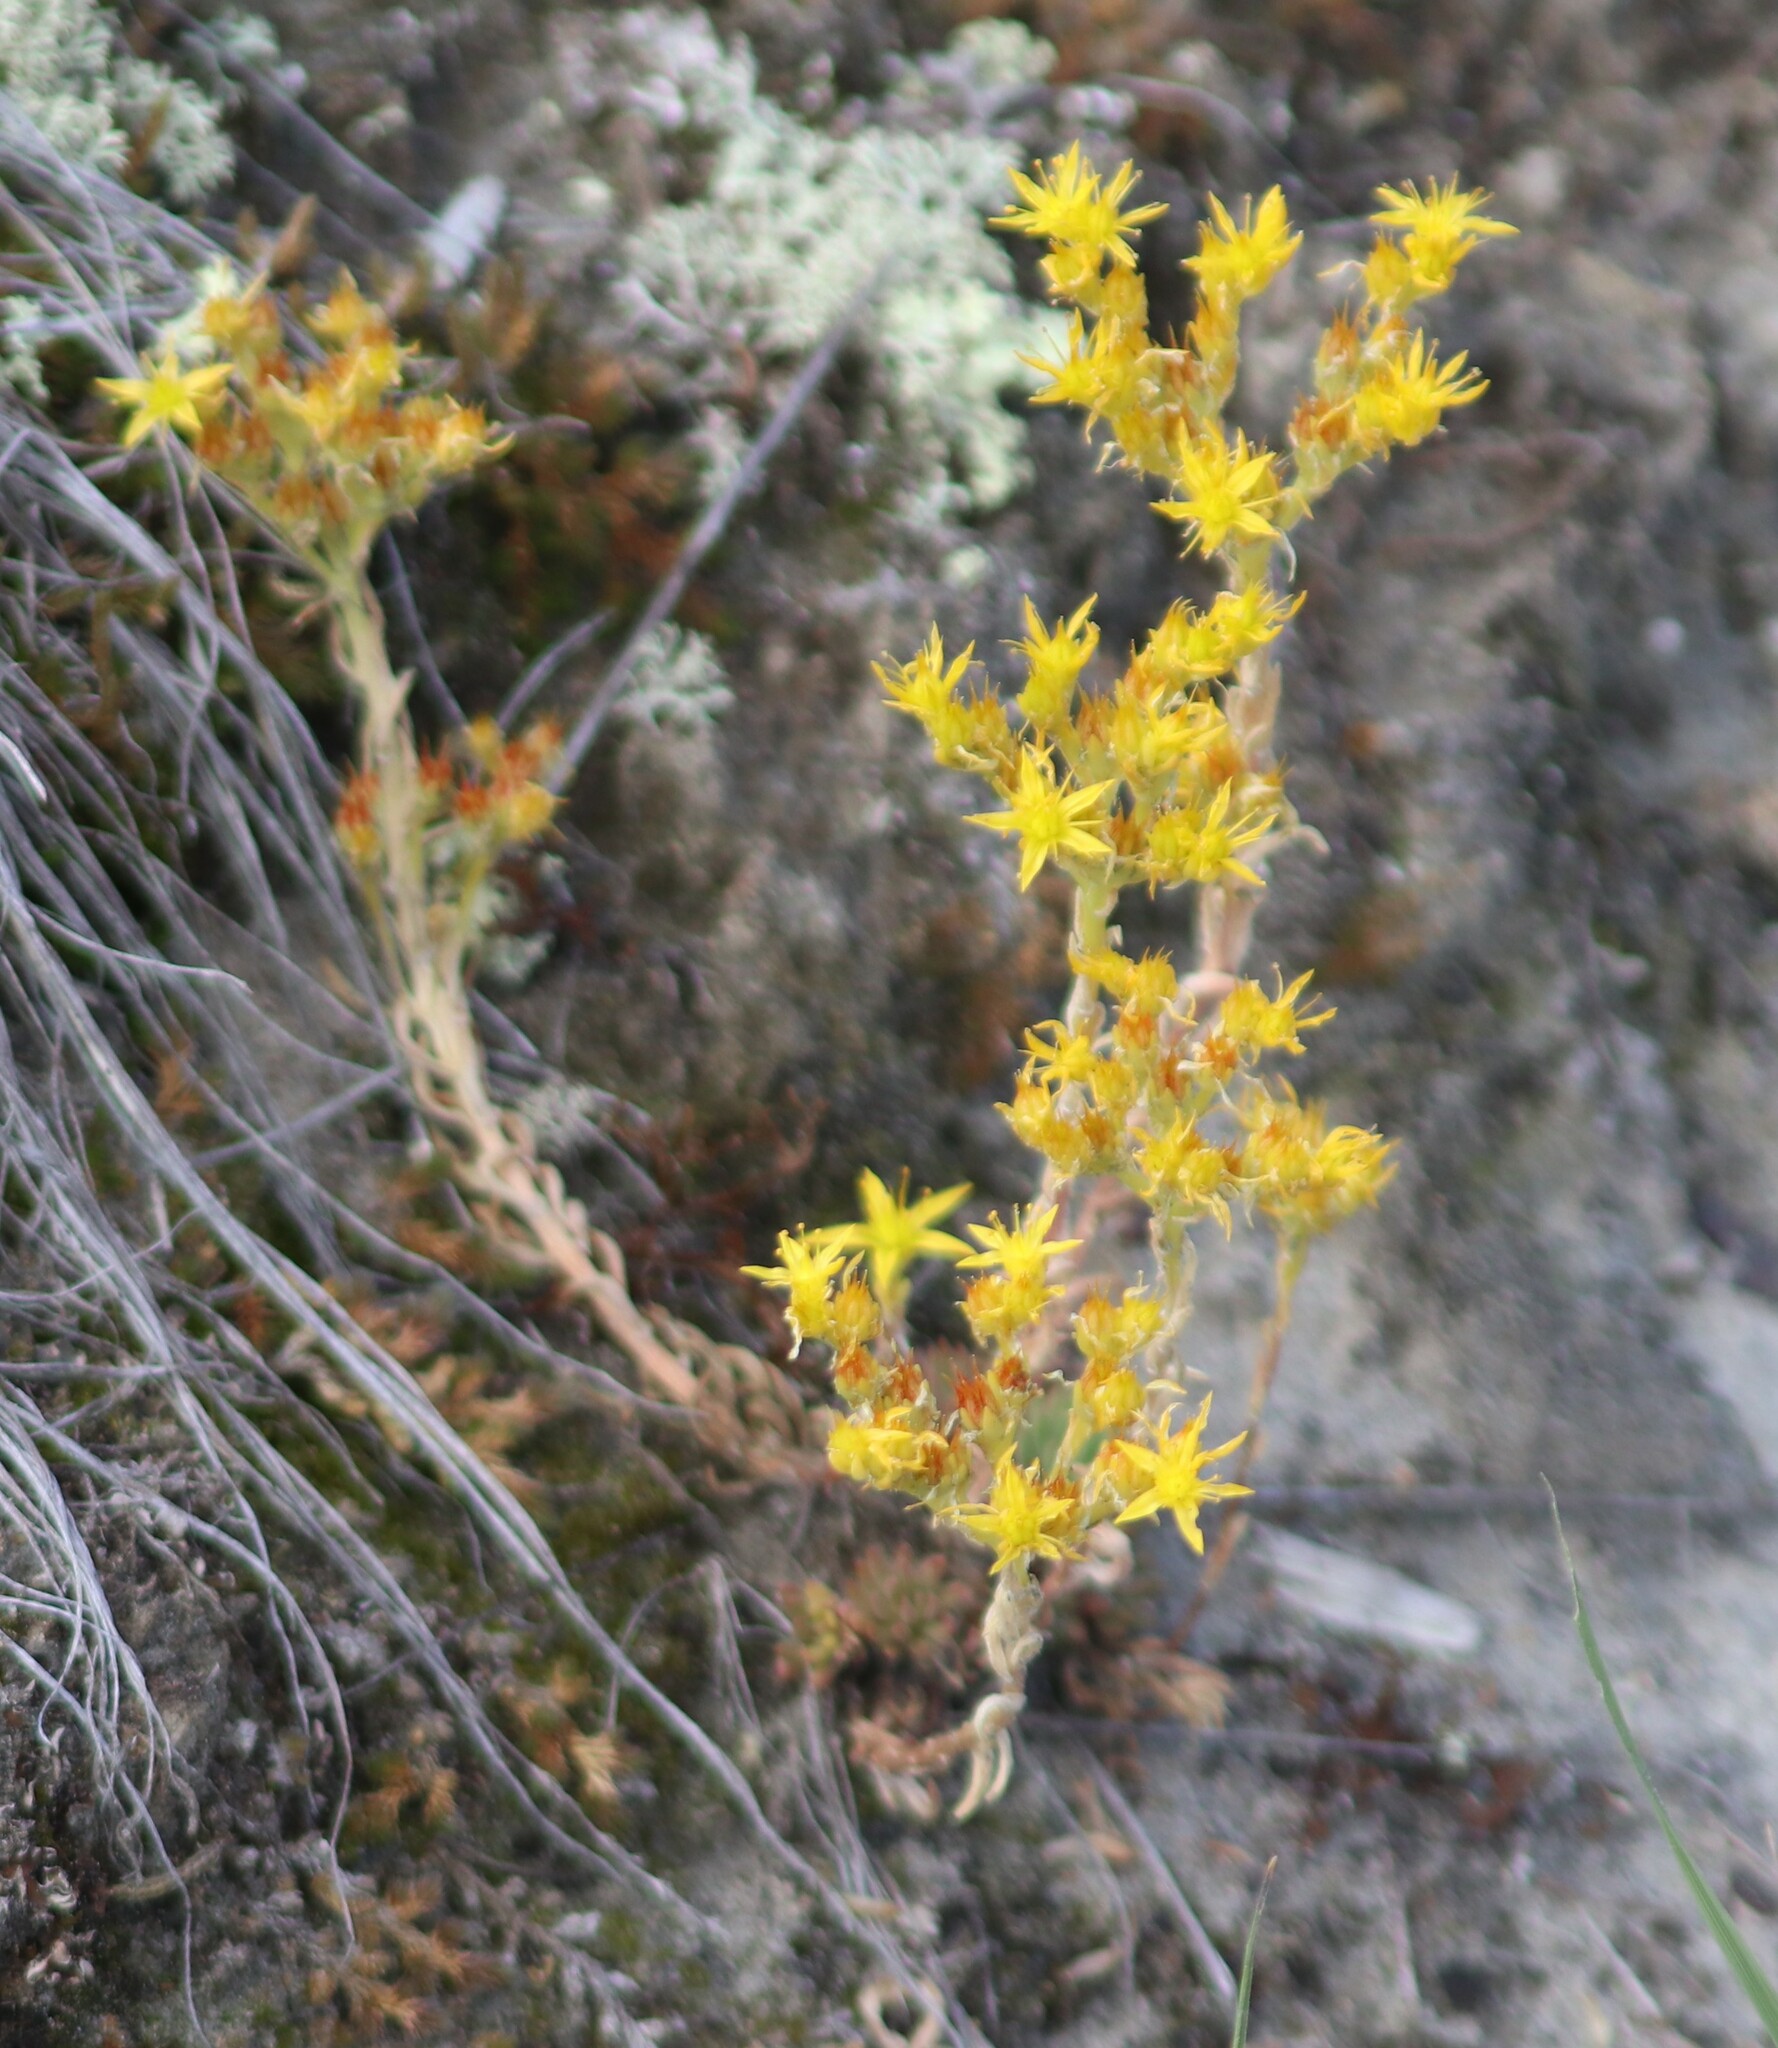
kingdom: Plantae
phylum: Tracheophyta
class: Magnoliopsida
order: Saxifragales
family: Crassulaceae
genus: Sedum
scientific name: Sedum lanceolatum
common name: Common stonecrop
